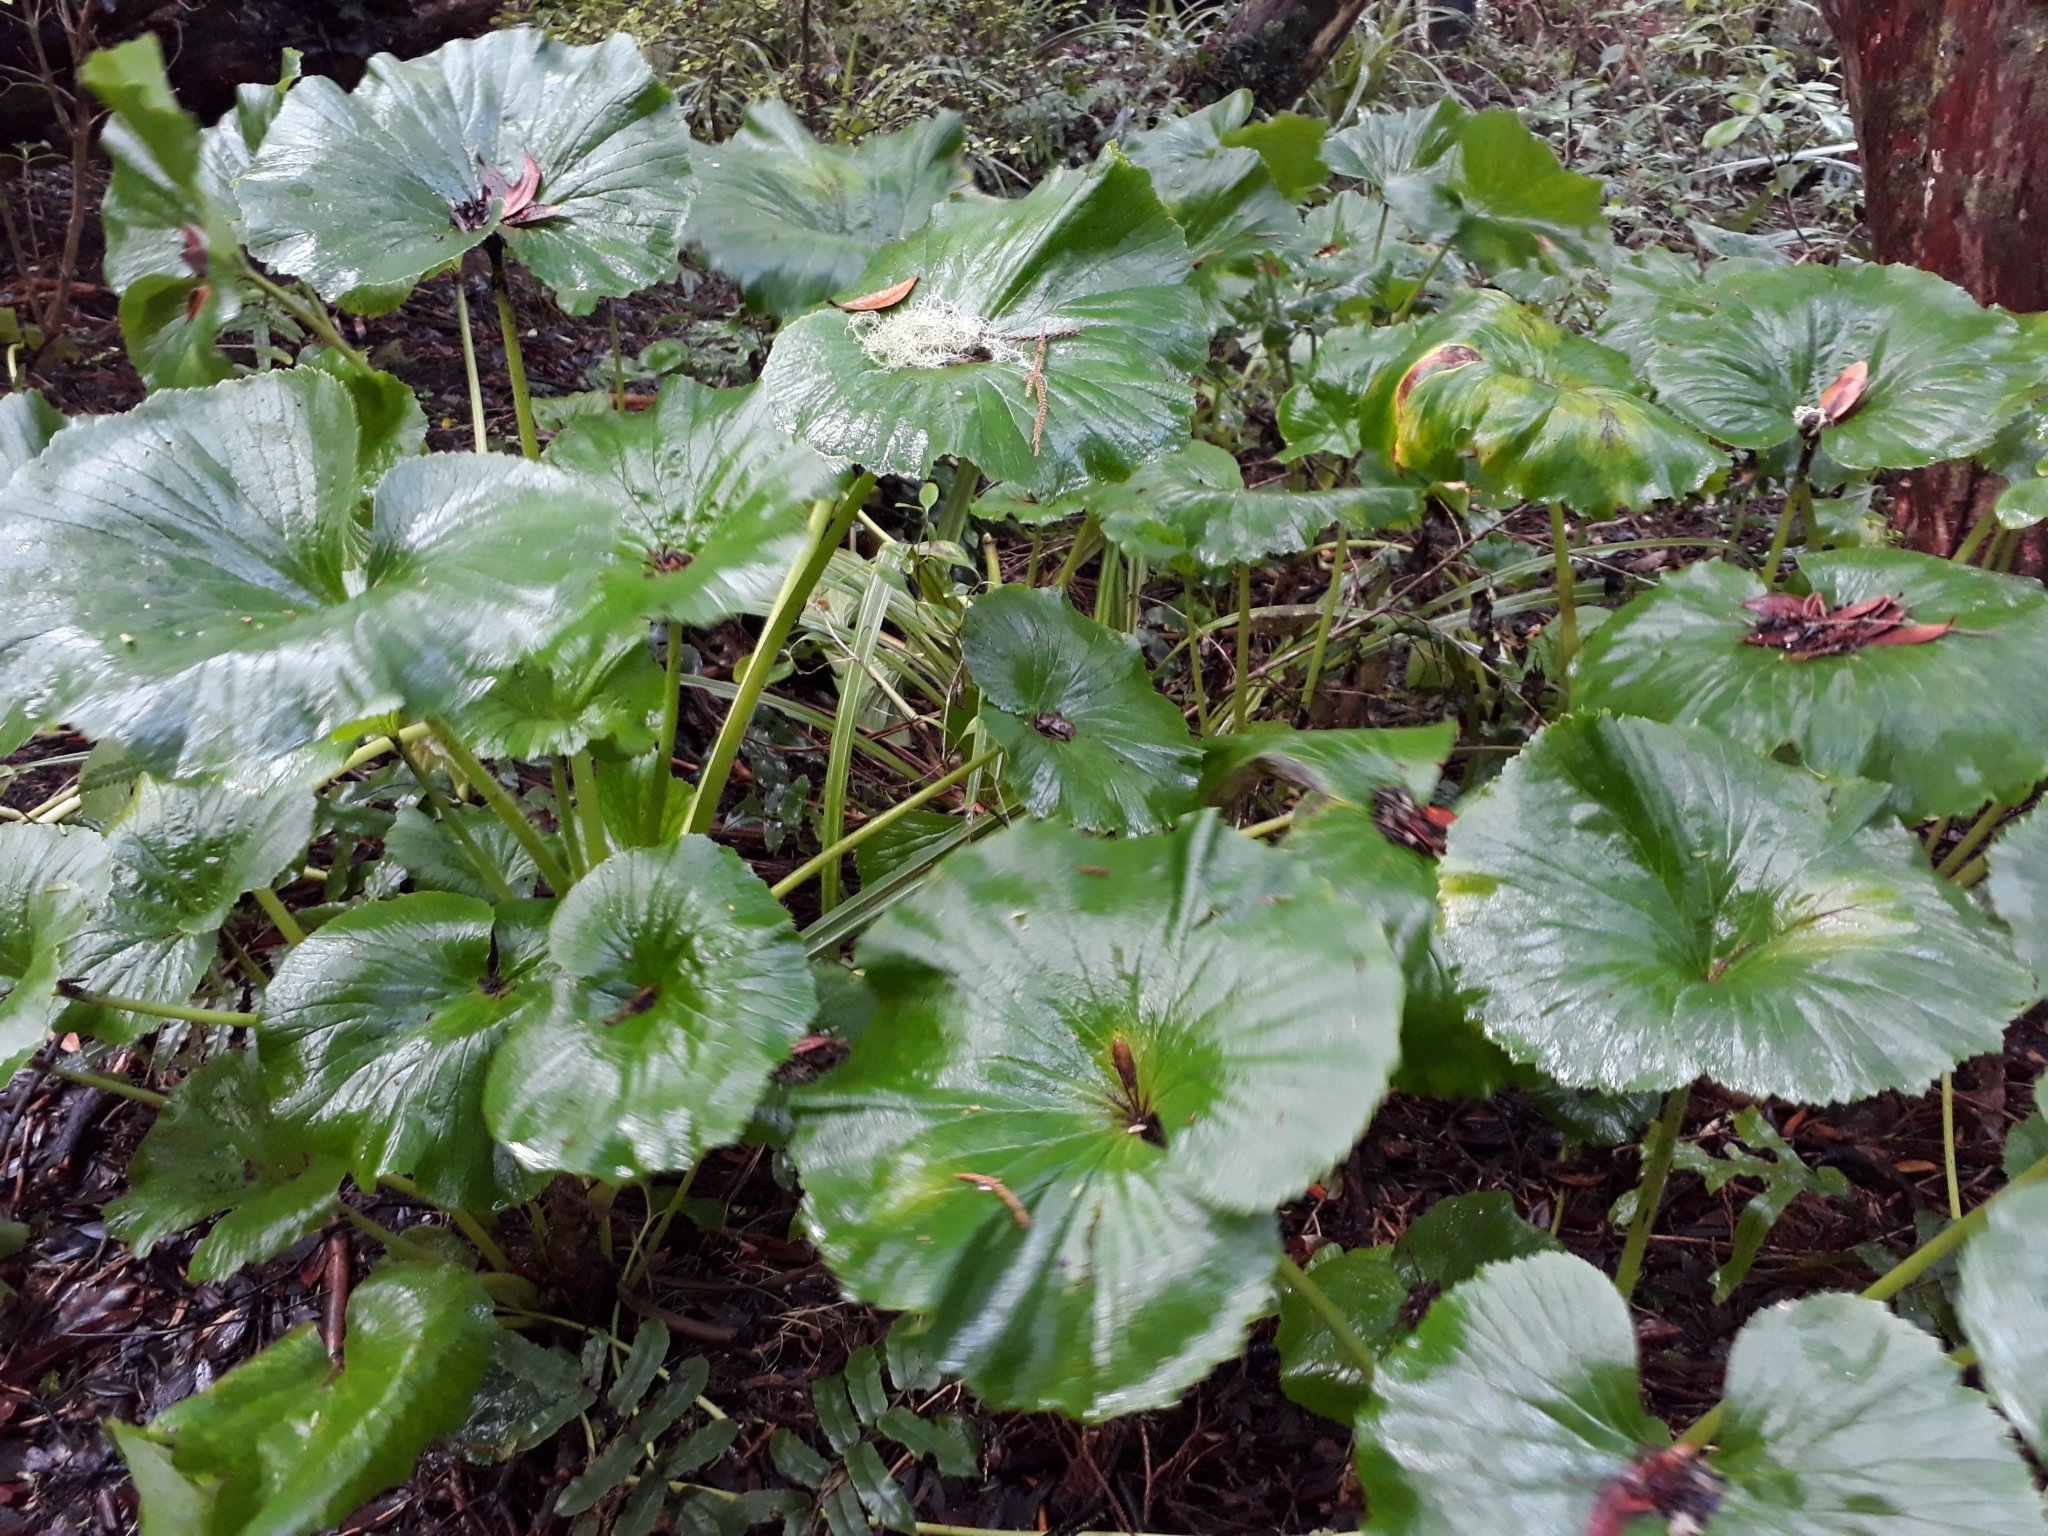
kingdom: Plantae
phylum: Tracheophyta
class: Magnoliopsida
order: Apiales
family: Apiaceae
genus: Azorella
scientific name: Azorella lyallii
